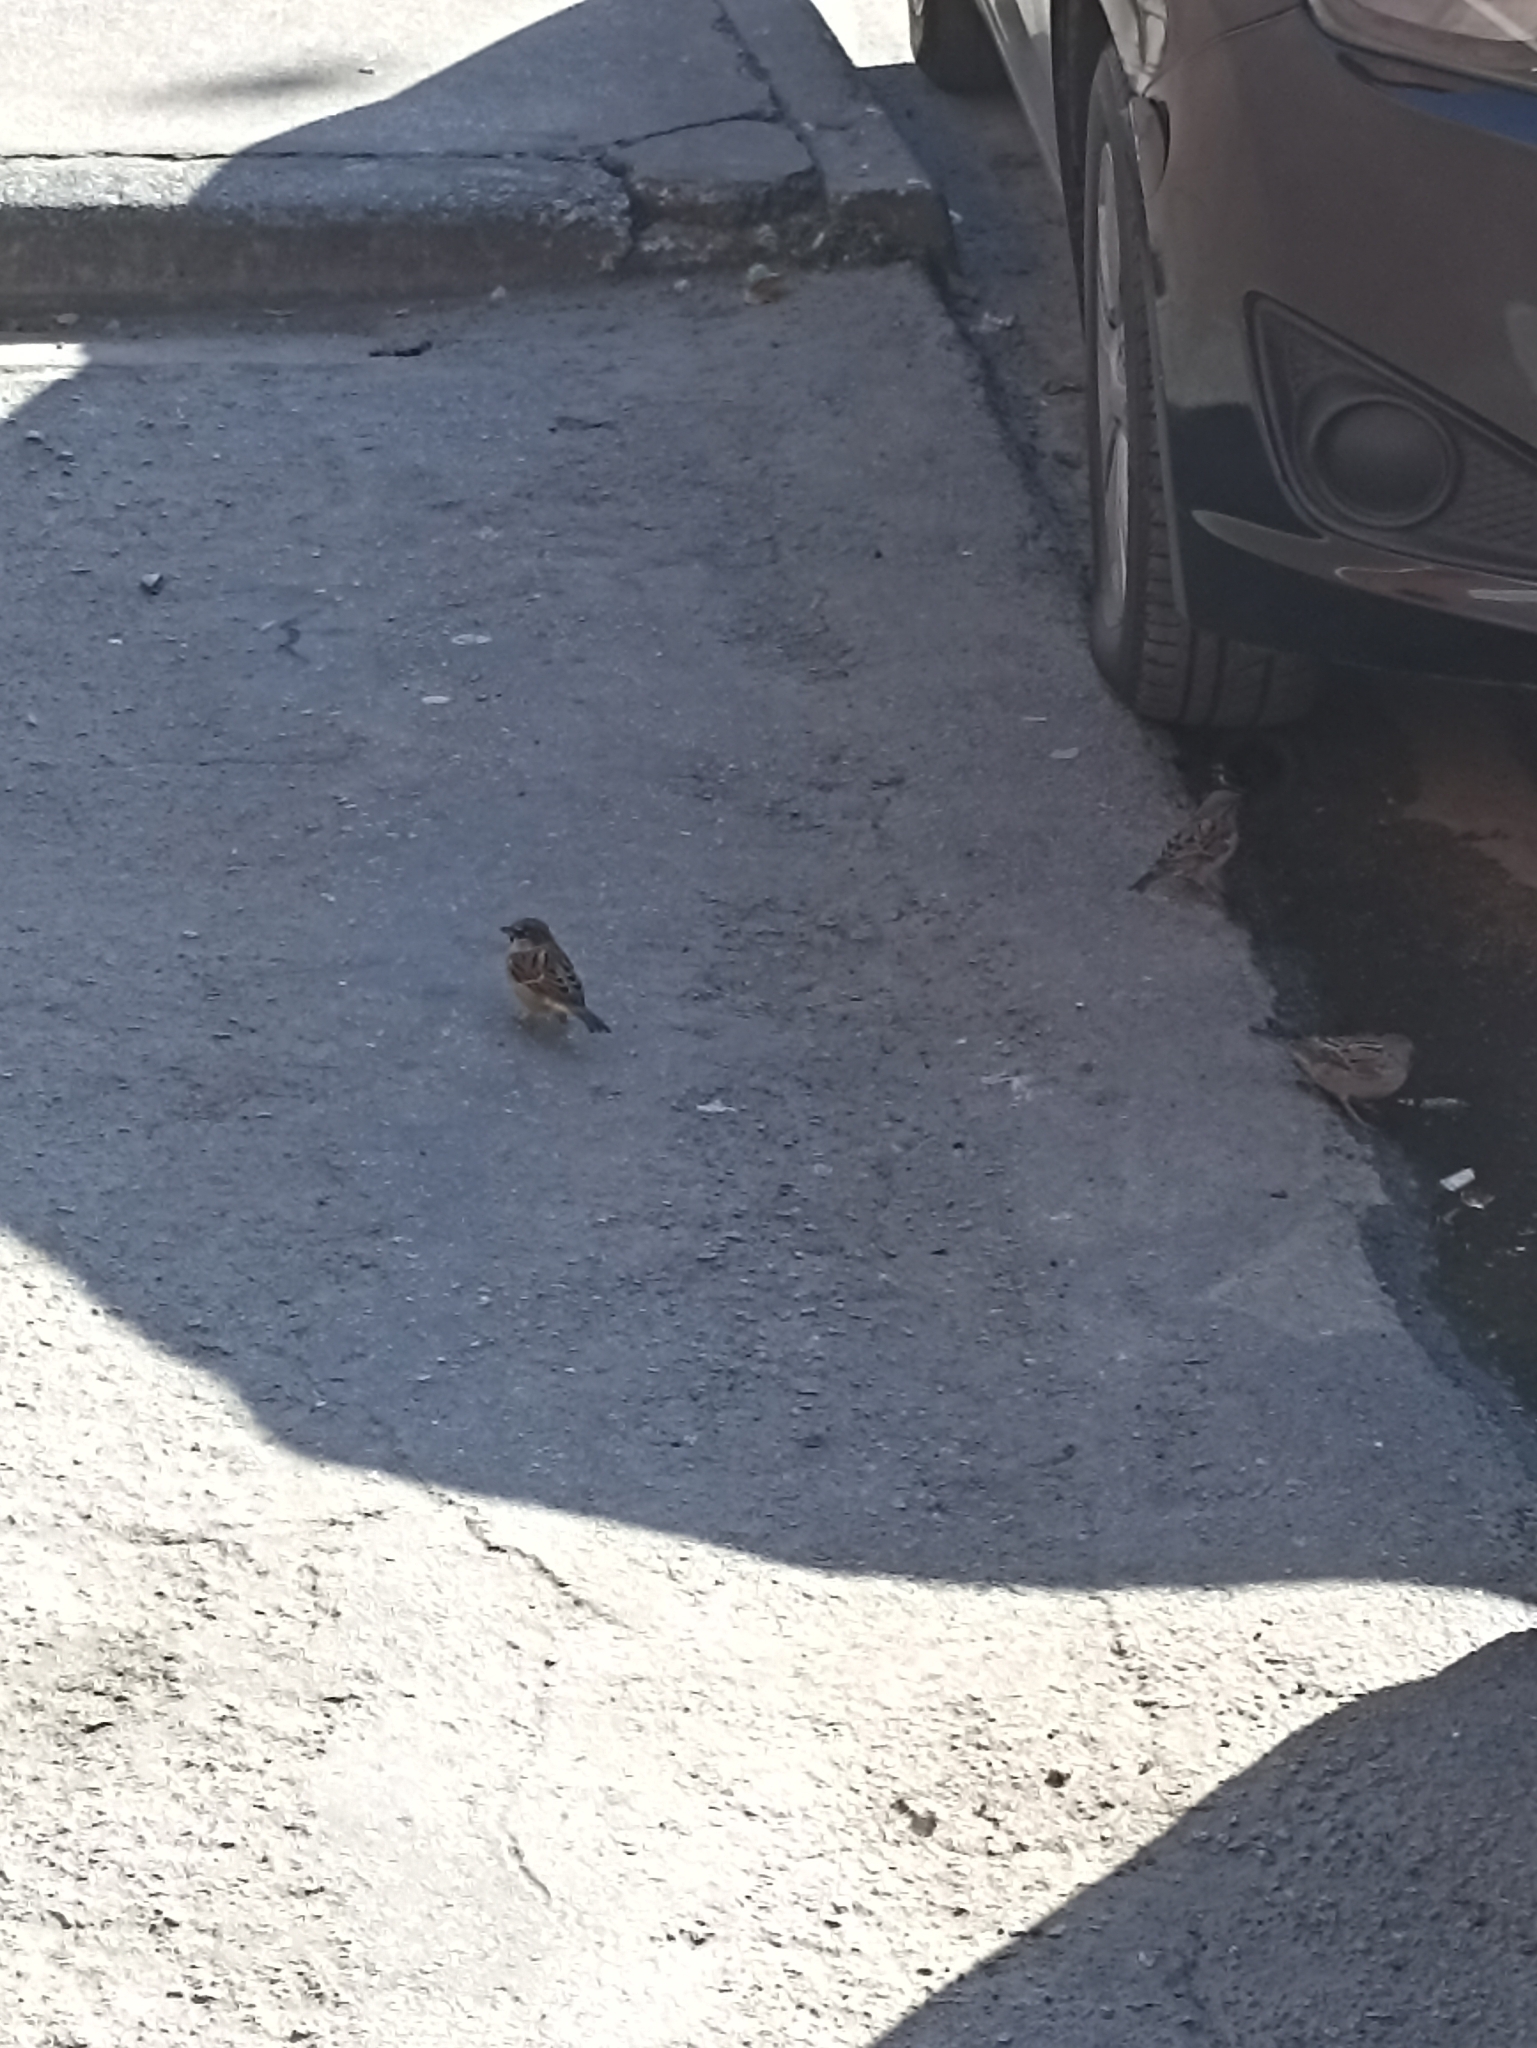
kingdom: Animalia
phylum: Chordata
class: Aves
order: Passeriformes
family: Passeridae
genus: Passer
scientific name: Passer domesticus
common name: House sparrow
